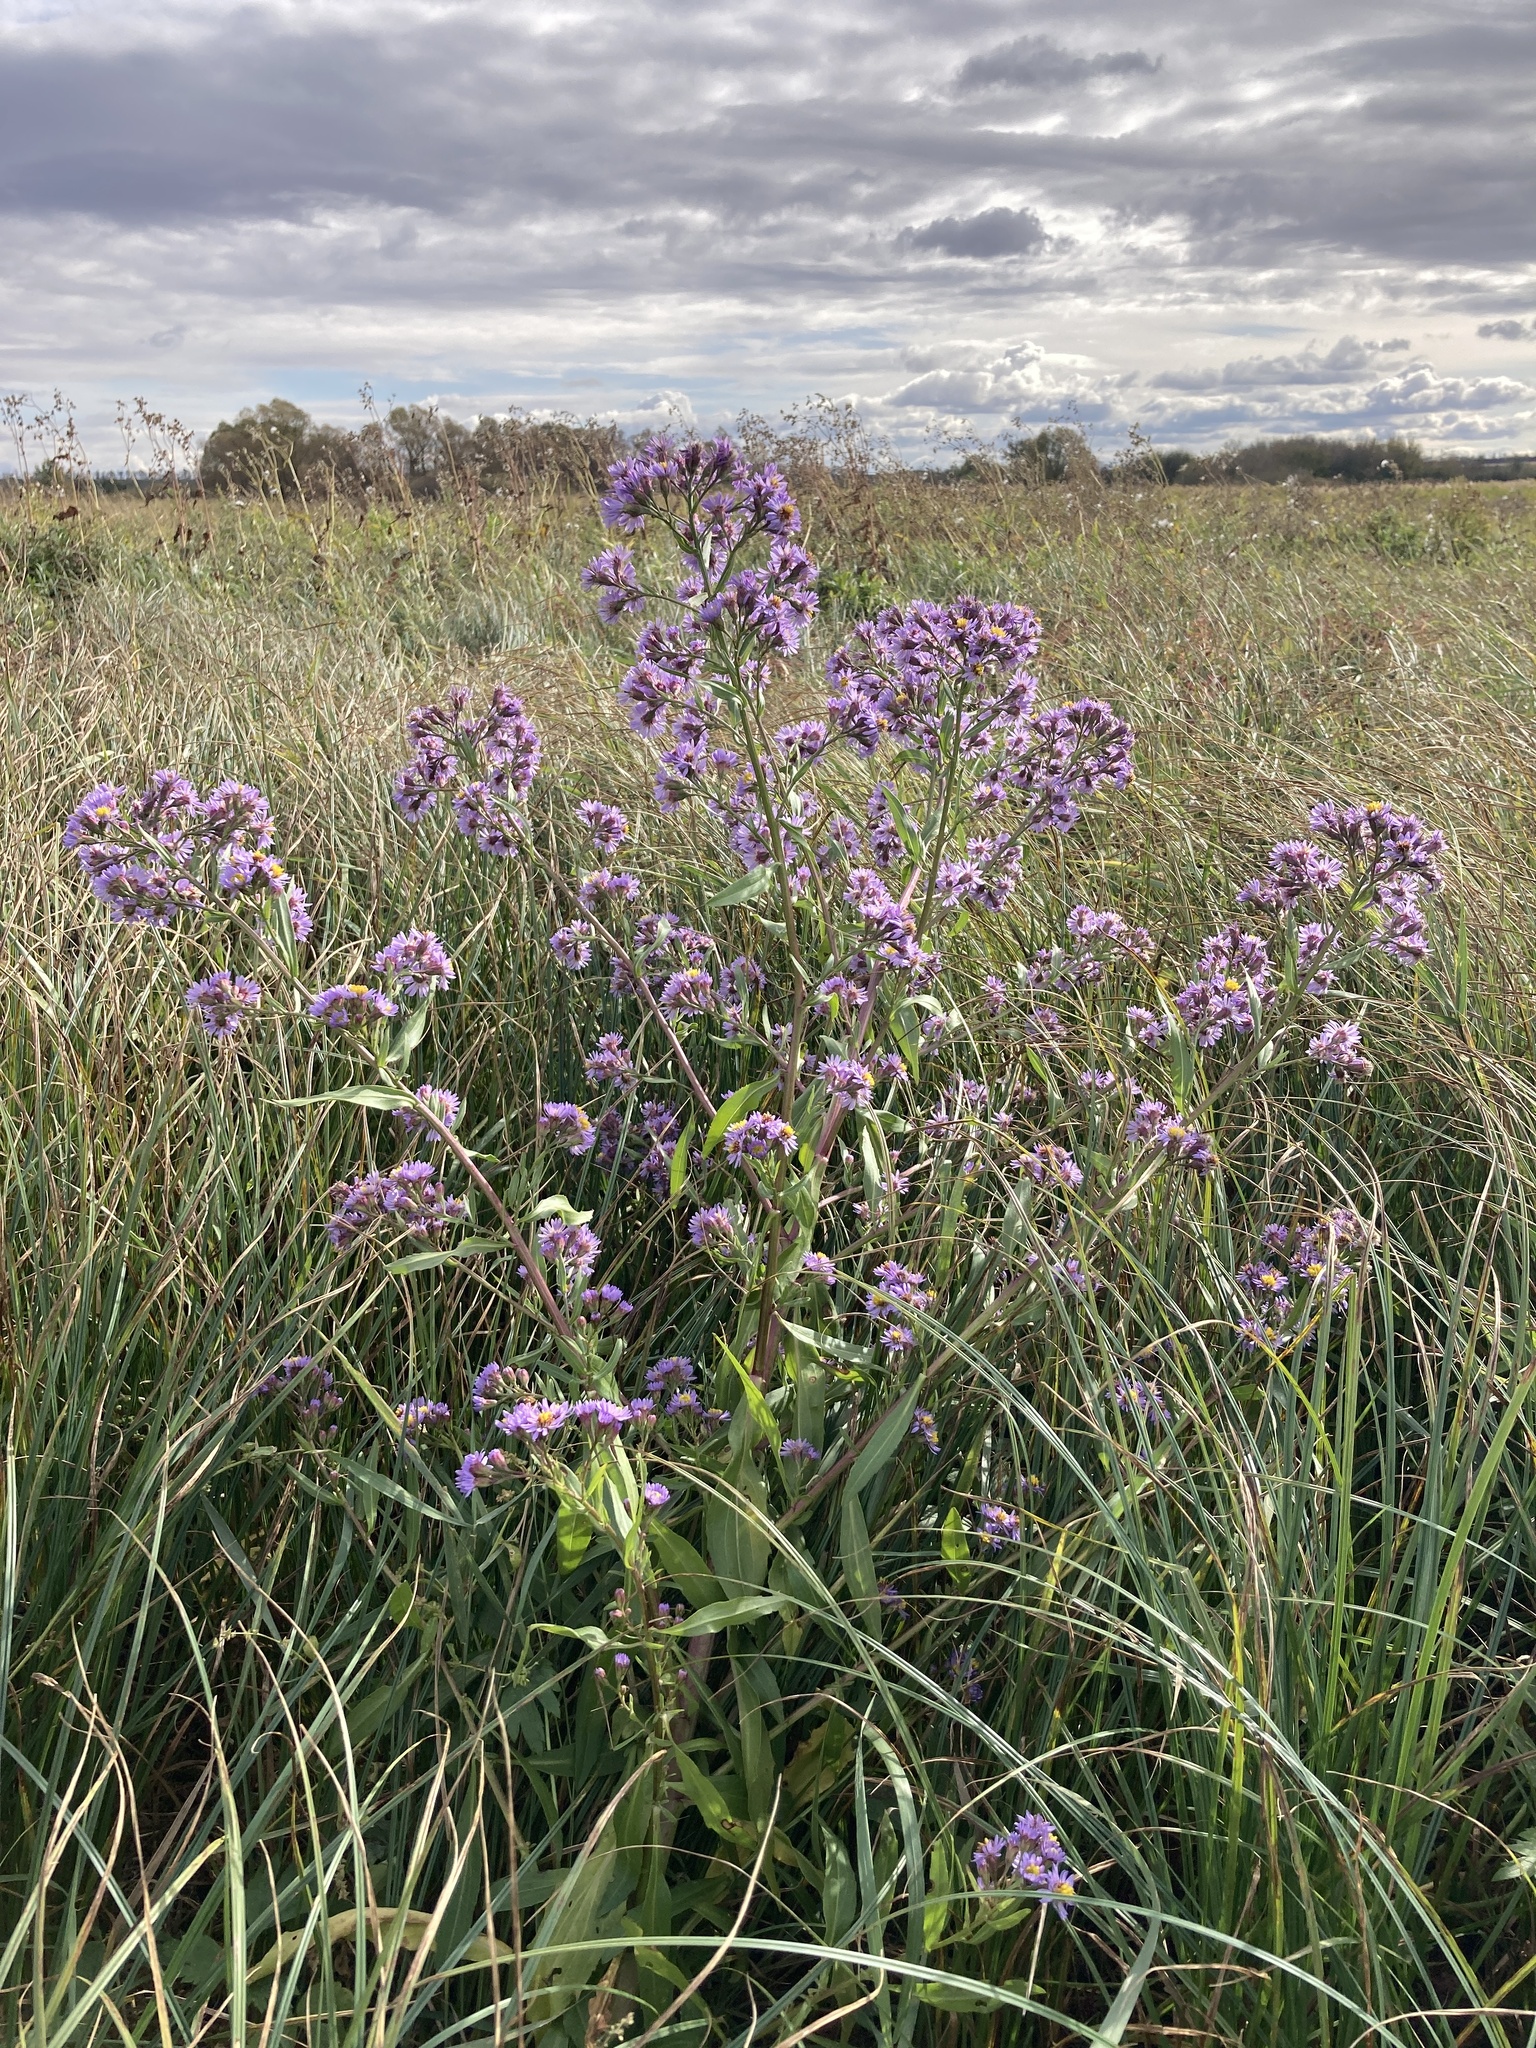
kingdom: Plantae
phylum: Tracheophyta
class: Magnoliopsida
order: Asterales
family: Asteraceae
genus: Tripolium
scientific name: Tripolium pannonicum
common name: Sea aster
